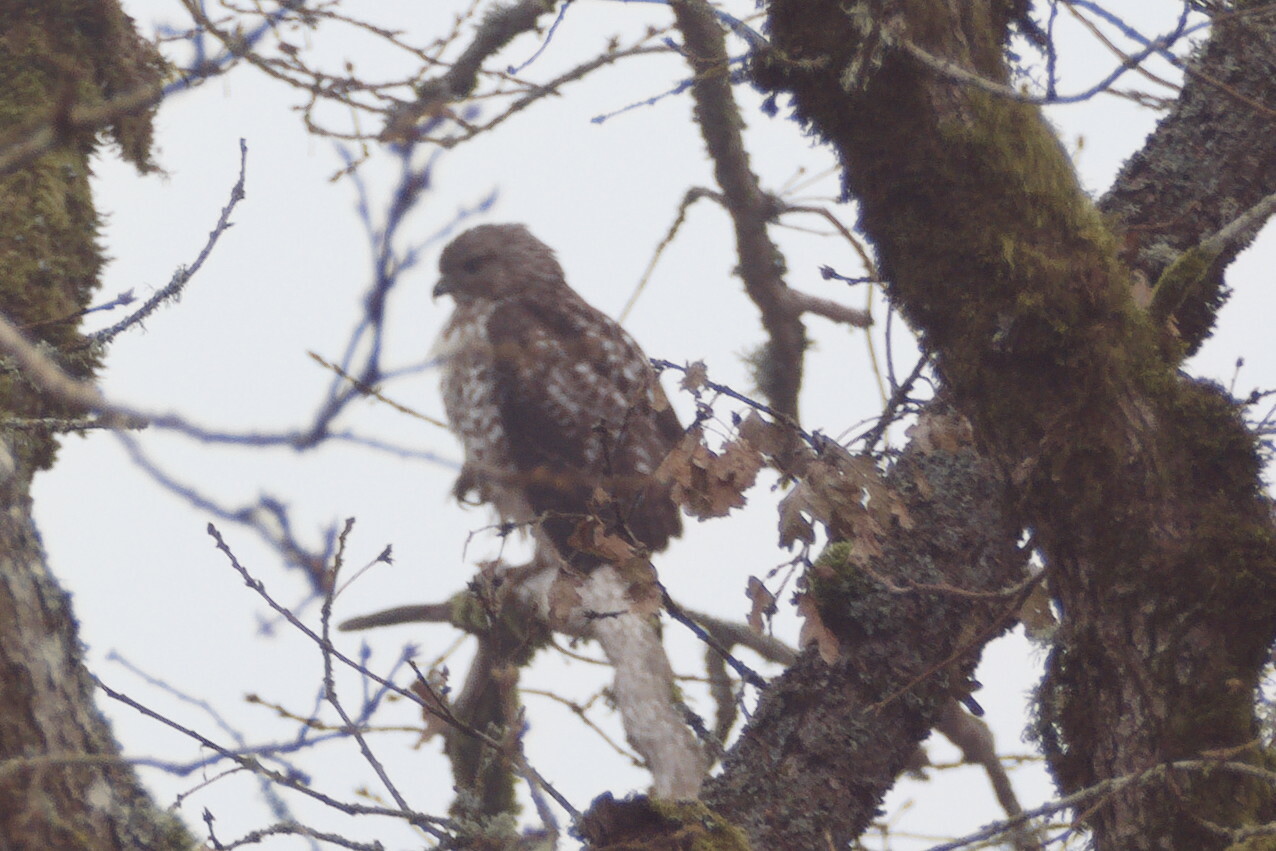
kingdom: Animalia
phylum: Chordata
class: Aves
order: Accipitriformes
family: Accipitridae
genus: Buteo
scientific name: Buteo jamaicensis
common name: Red-tailed hawk
